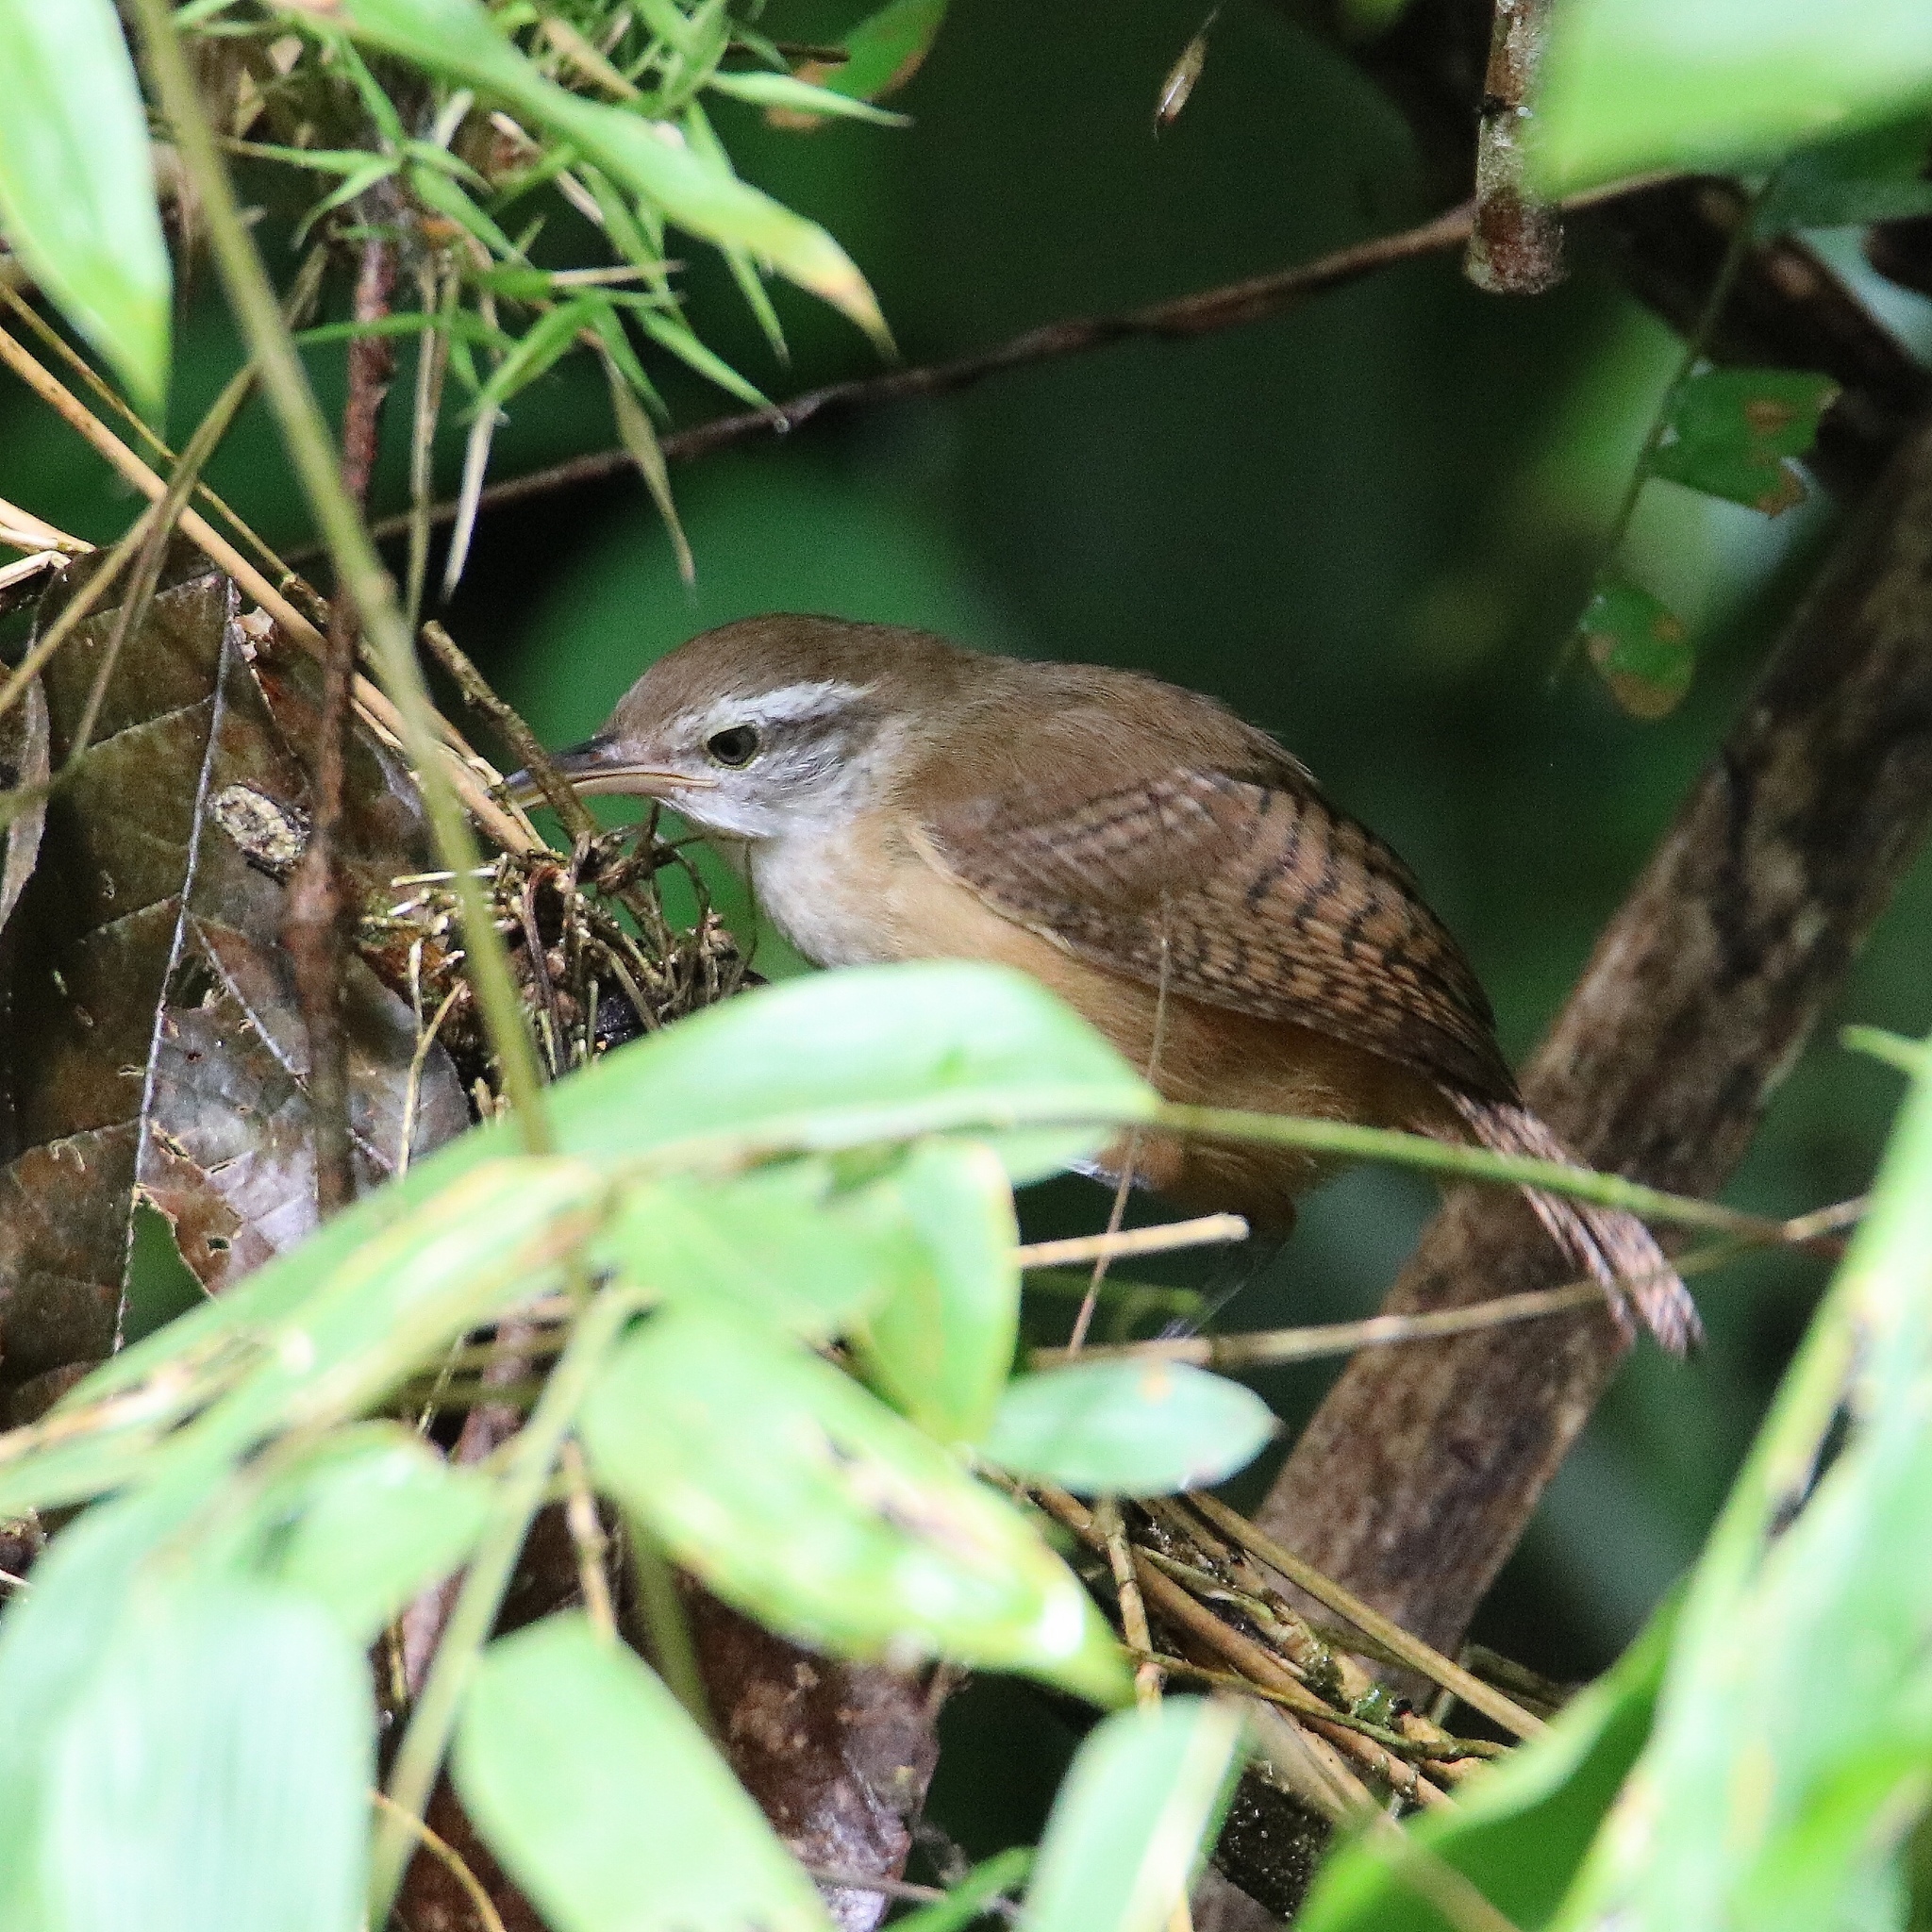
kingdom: Animalia
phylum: Chordata
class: Aves
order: Passeriformes
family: Troglodytidae
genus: Cantorchilus
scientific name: Cantorchilus leucotis
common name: Buff-breasted wren
